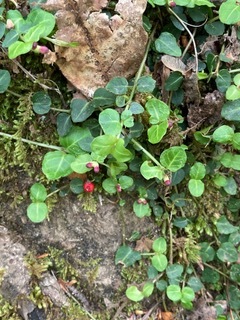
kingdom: Plantae
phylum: Tracheophyta
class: Magnoliopsida
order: Gentianales
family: Rubiaceae
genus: Mitchella
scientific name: Mitchella repens
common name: Partridge-berry
